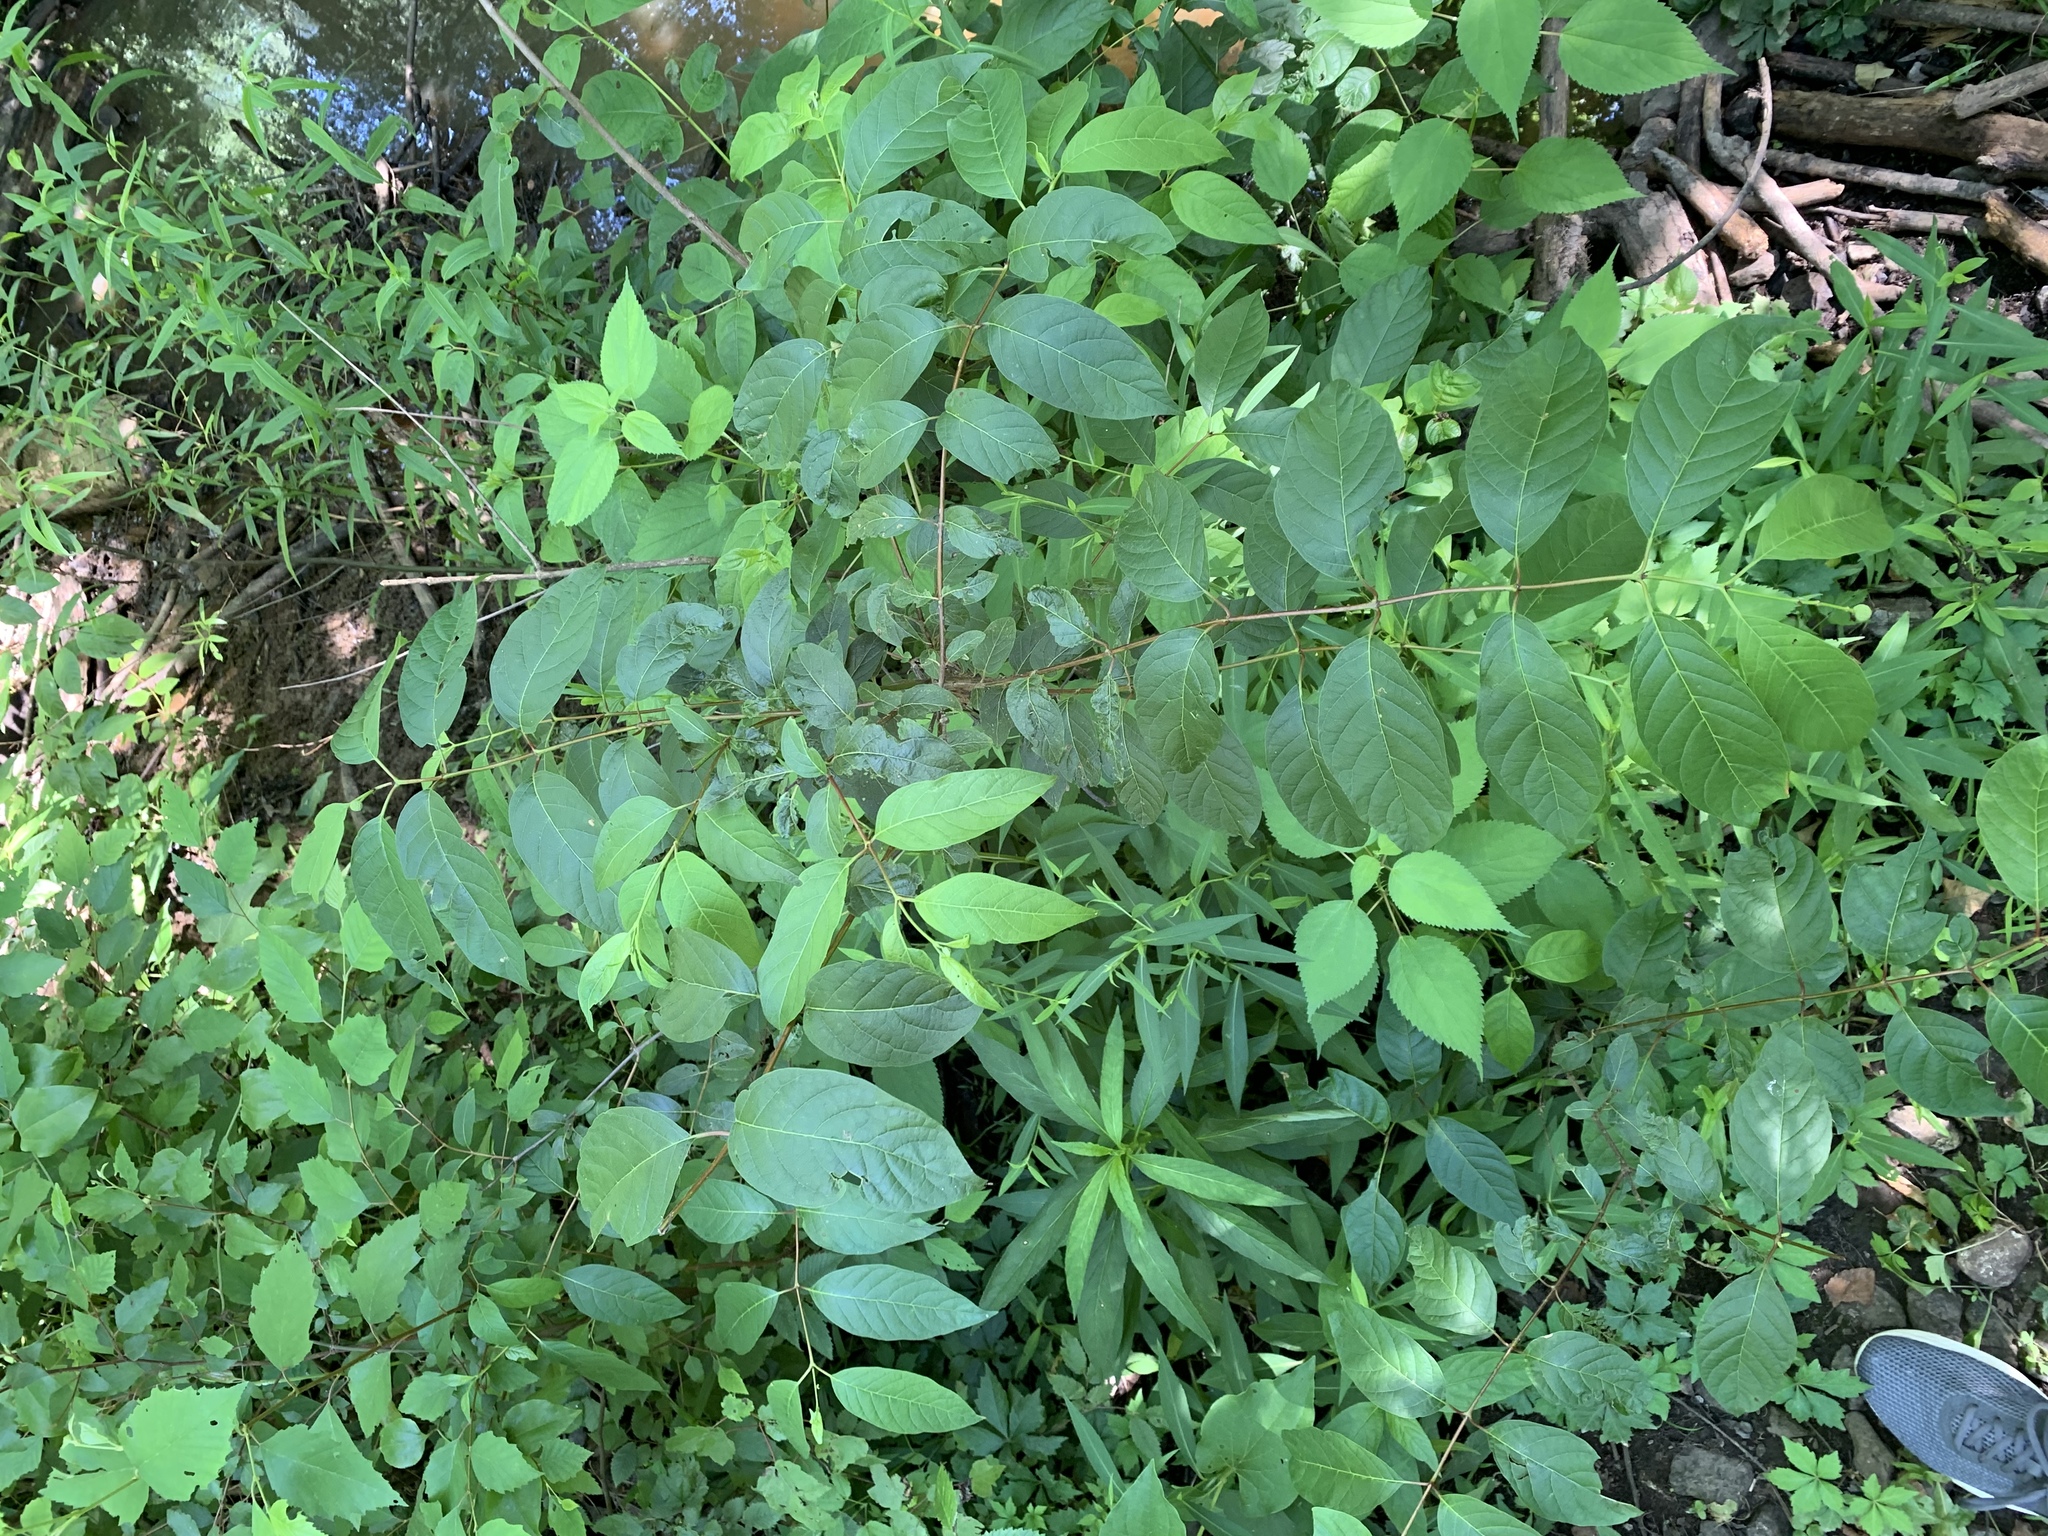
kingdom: Plantae
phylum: Tracheophyta
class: Magnoliopsida
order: Gentianales
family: Rubiaceae
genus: Cephalanthus
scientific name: Cephalanthus occidentalis
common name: Button-willow
